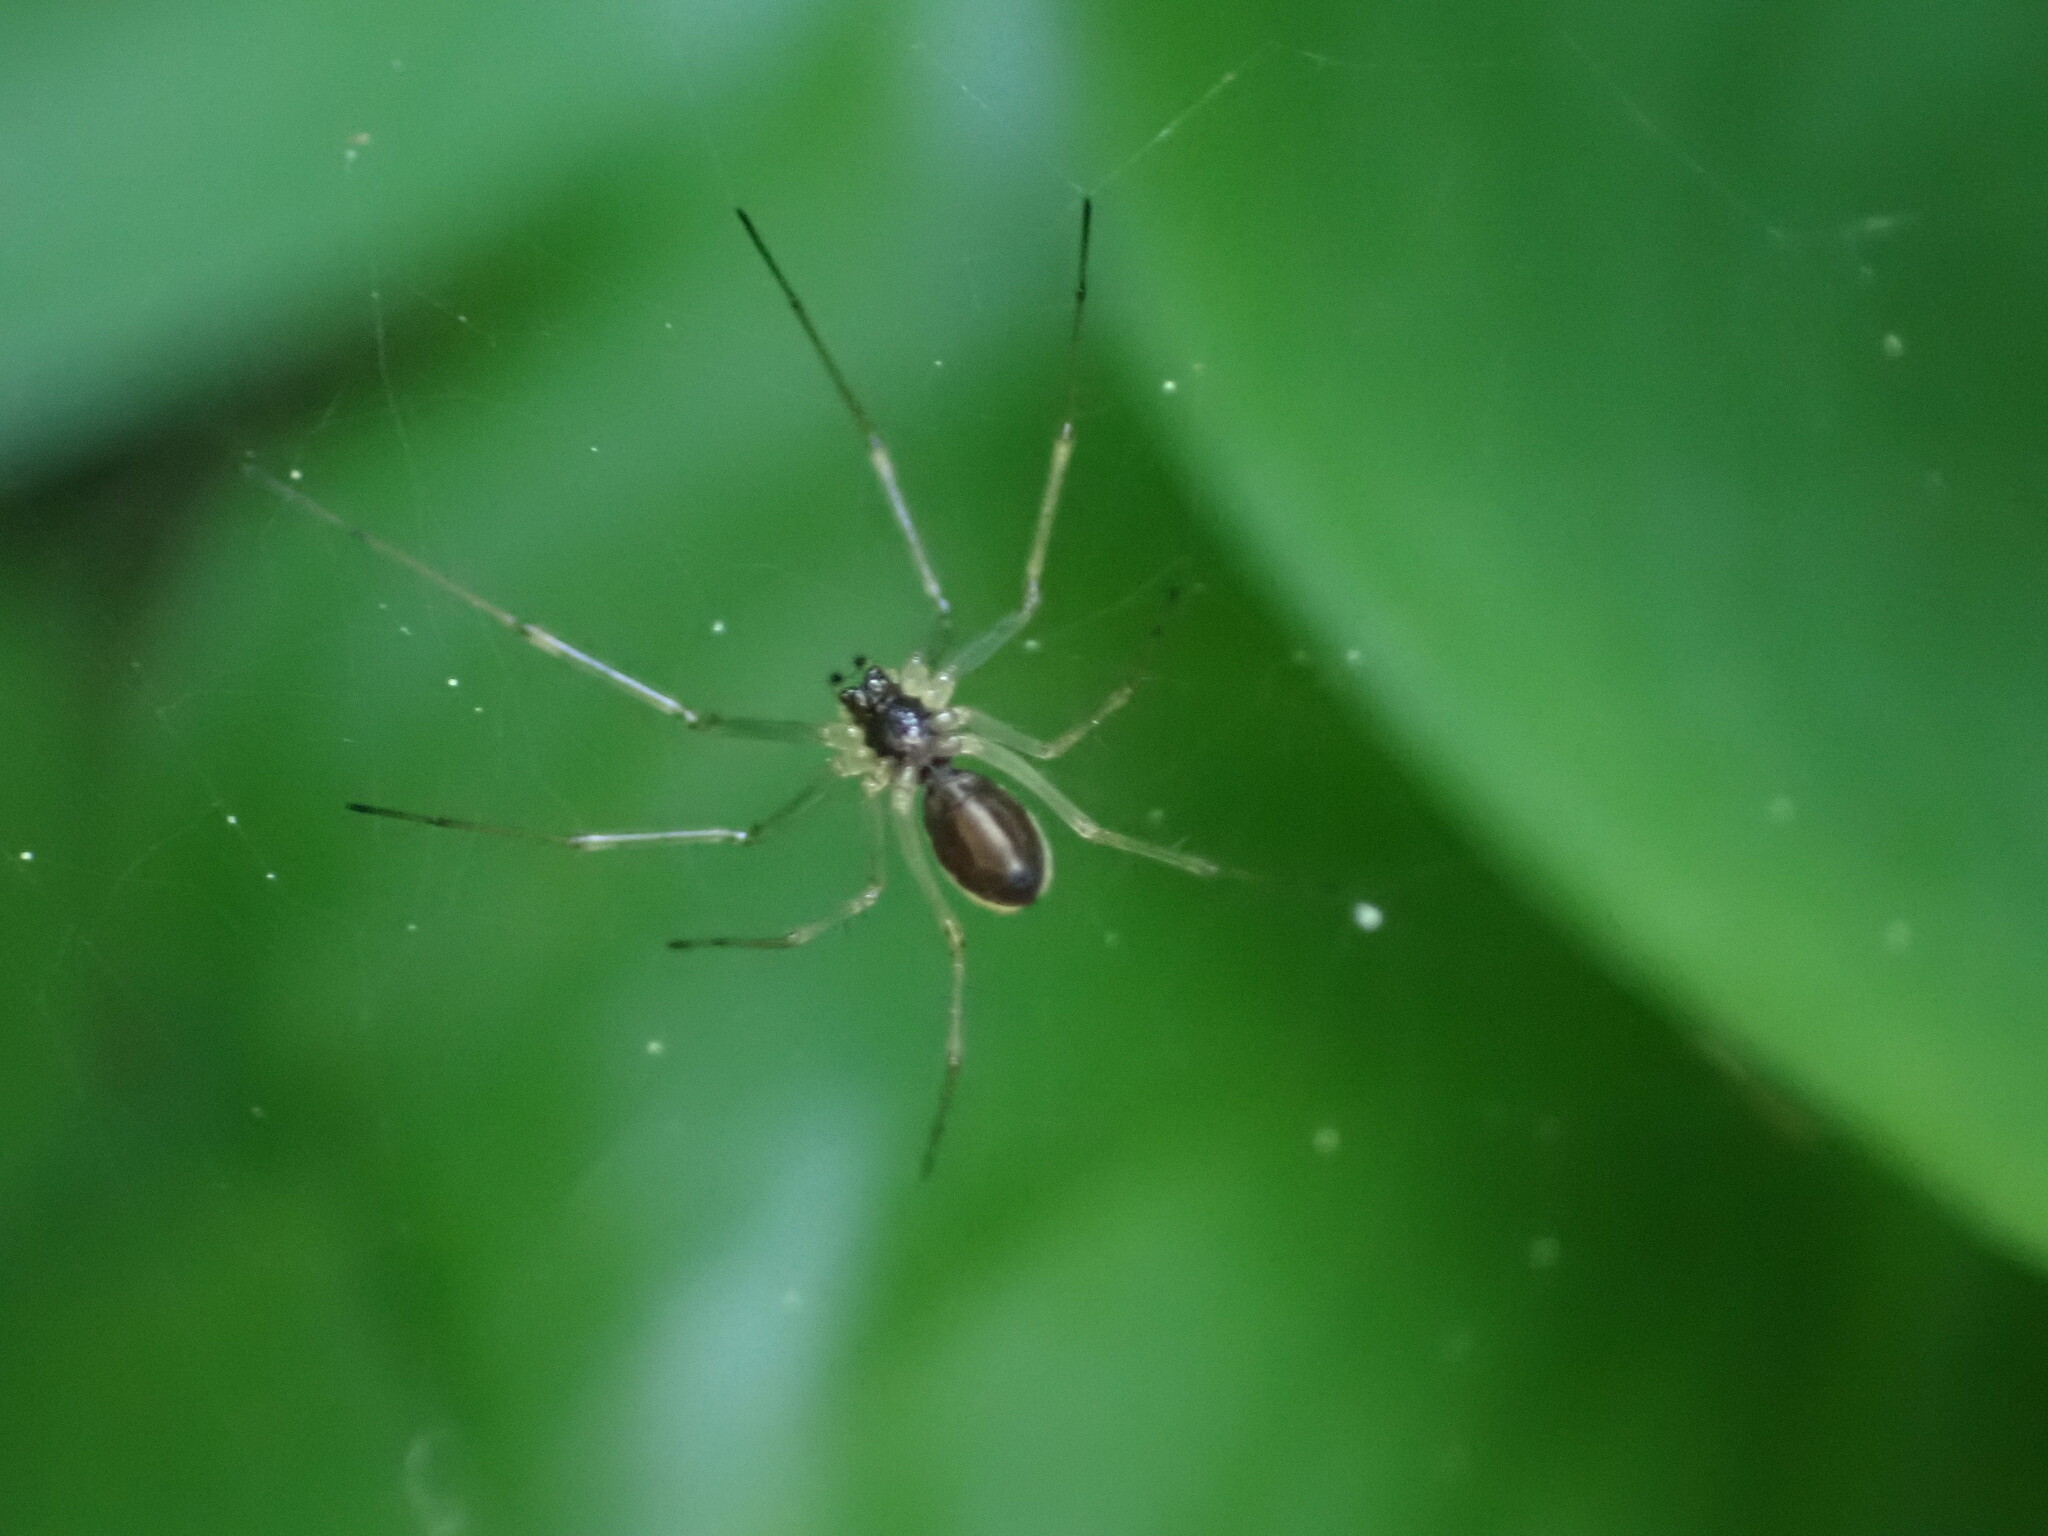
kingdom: Animalia
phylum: Arthropoda
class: Arachnida
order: Araneae
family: Linyphiidae
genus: Microlinyphia
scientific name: Microlinyphia dana
